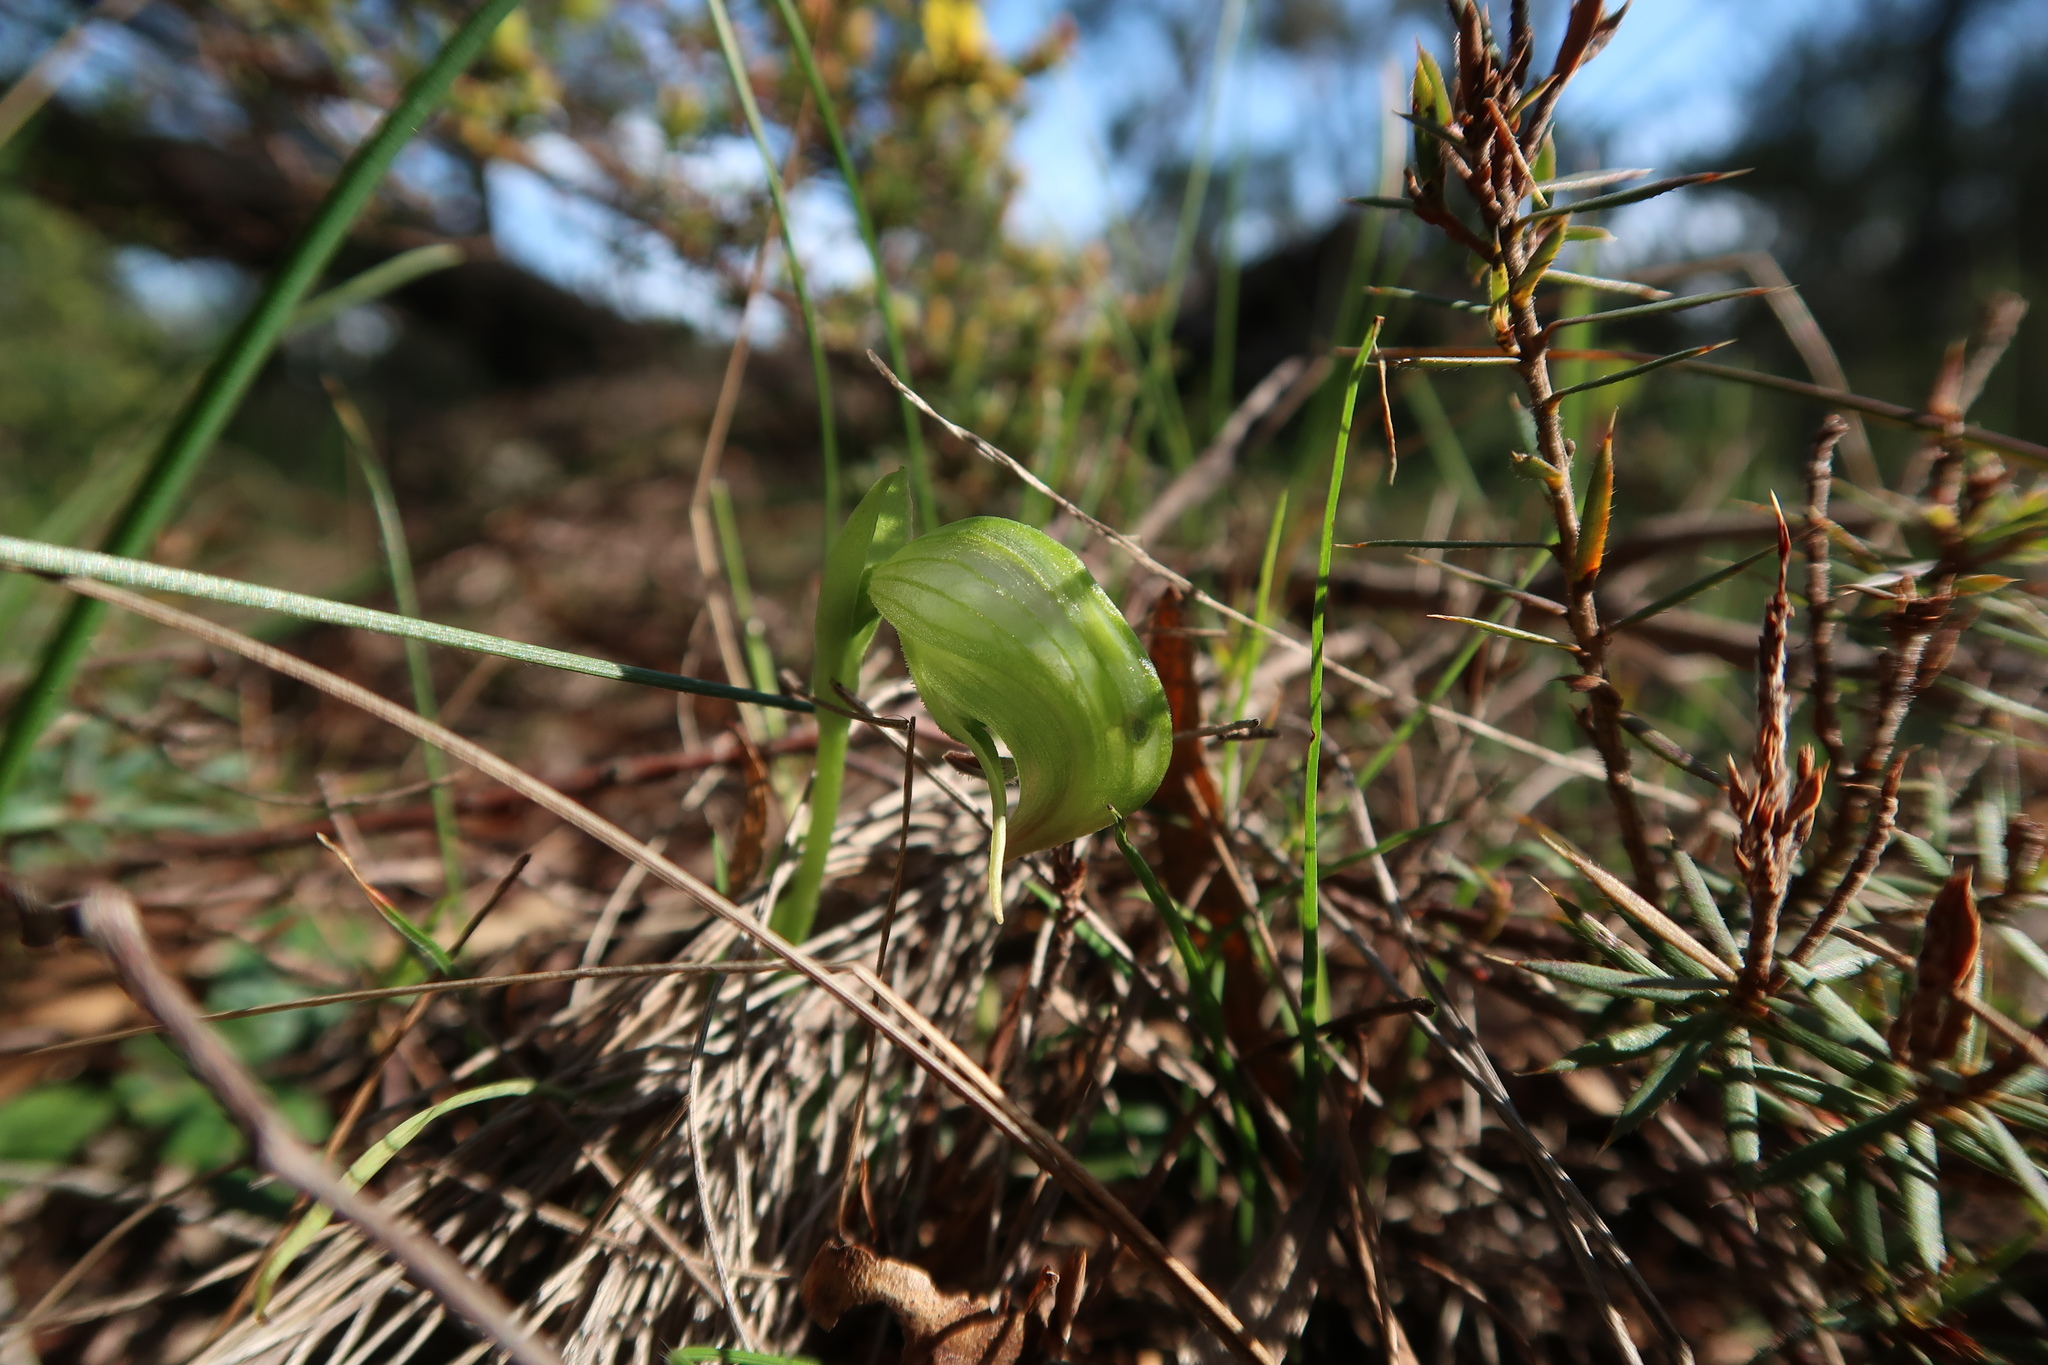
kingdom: Plantae
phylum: Tracheophyta
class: Liliopsida
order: Asparagales
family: Orchidaceae
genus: Pterostylis
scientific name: Pterostylis nutans
